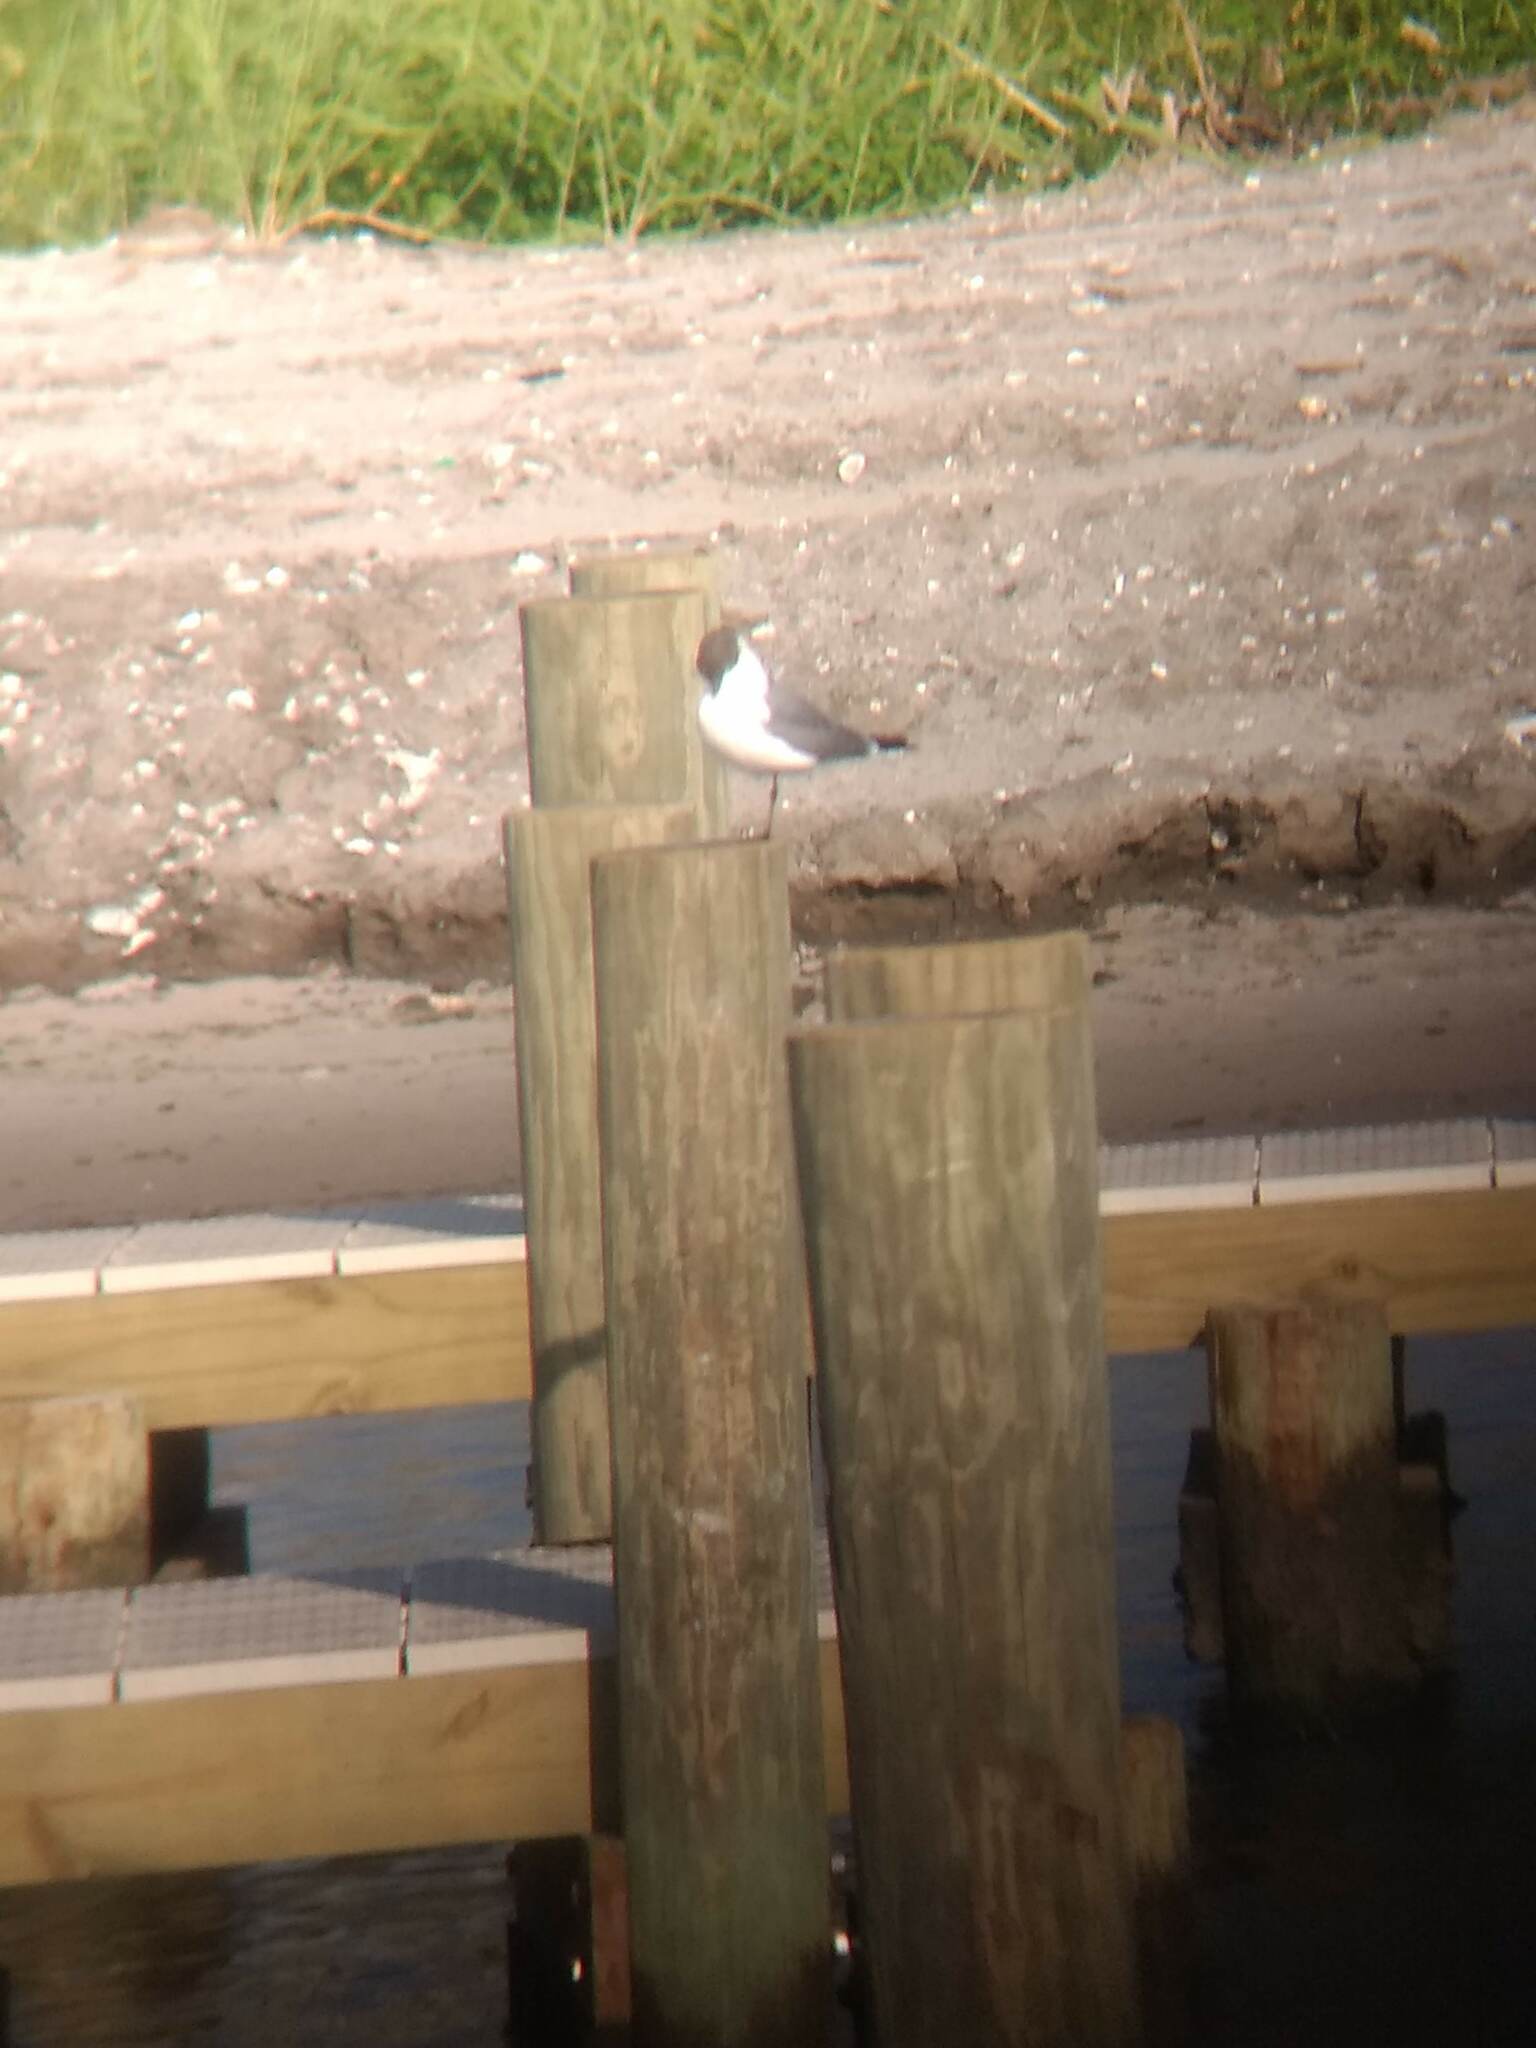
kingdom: Animalia
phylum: Chordata
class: Aves
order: Charadriiformes
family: Laridae
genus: Leucophaeus
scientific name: Leucophaeus atricilla
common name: Laughing gull
